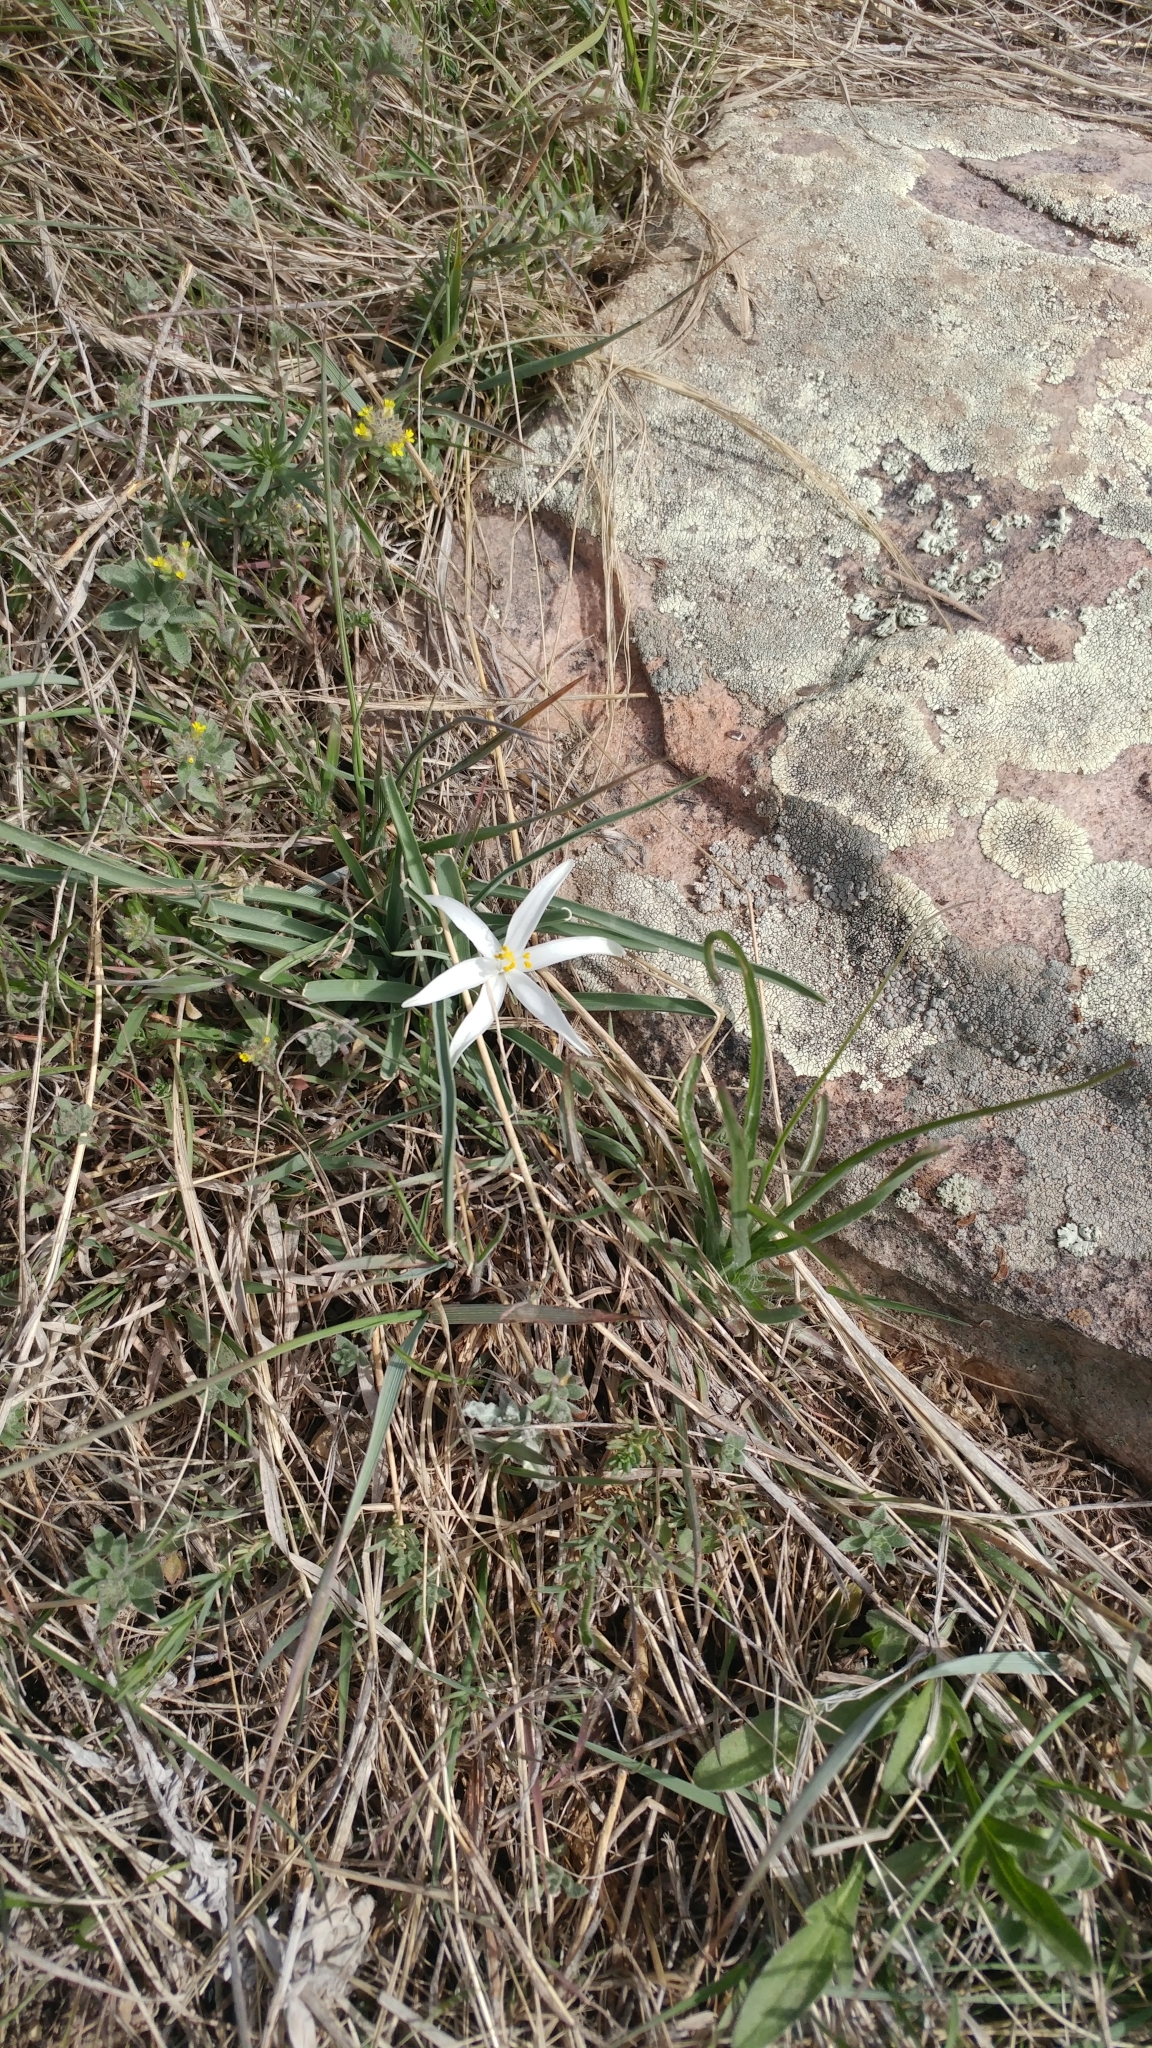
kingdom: Plantae
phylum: Tracheophyta
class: Liliopsida
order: Asparagales
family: Asparagaceae
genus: Leucocrinum
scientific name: Leucocrinum montanum
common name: Mountain-lily
